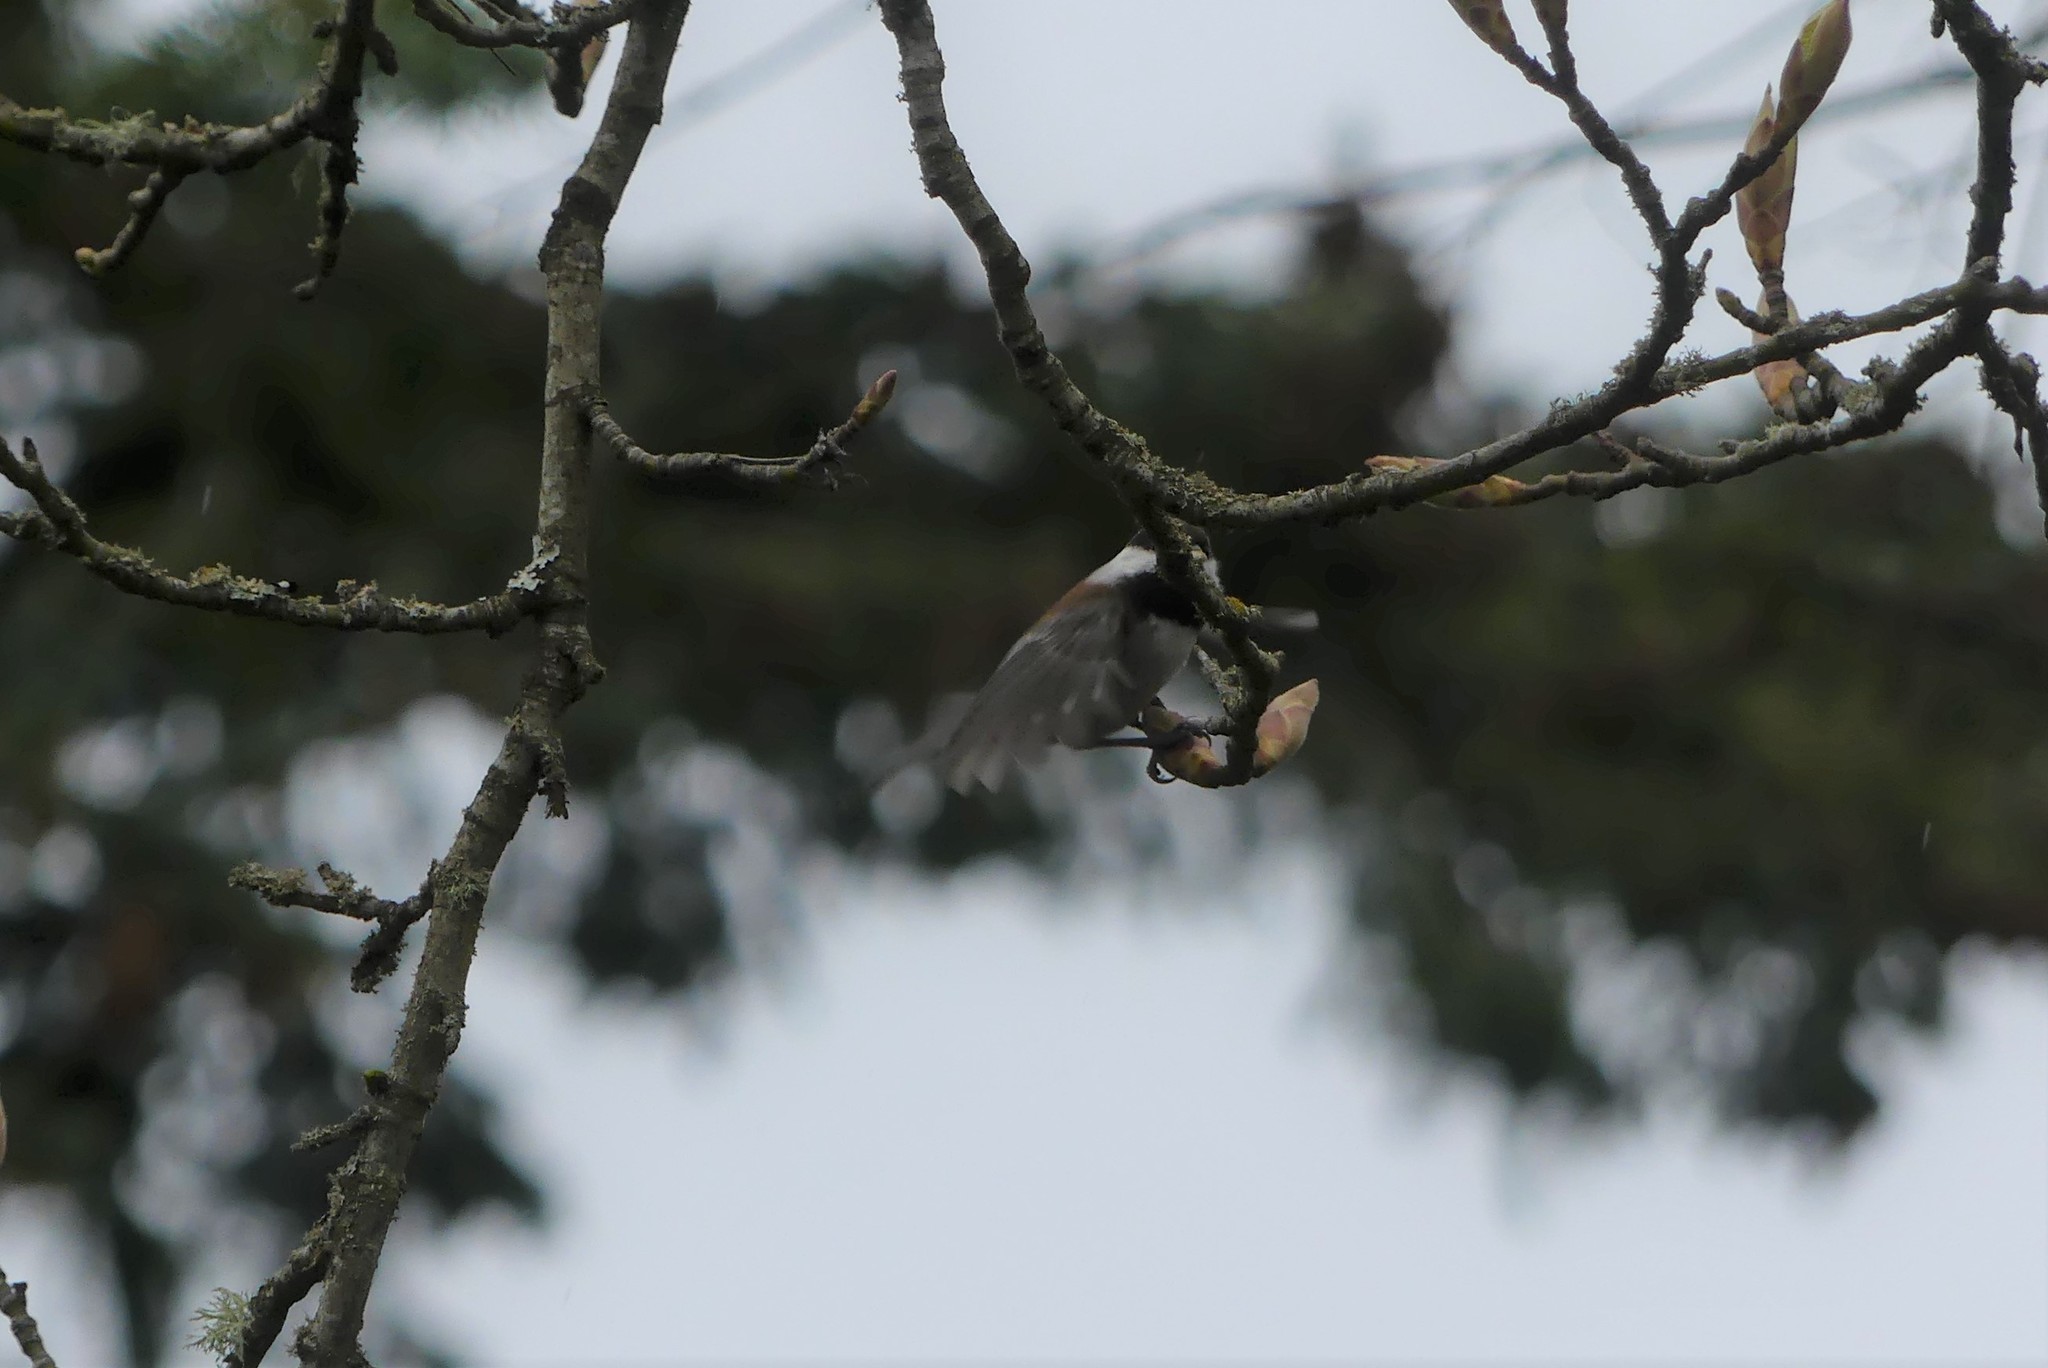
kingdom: Animalia
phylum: Chordata
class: Aves
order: Passeriformes
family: Paridae
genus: Poecile
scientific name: Poecile rufescens
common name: Chestnut-backed chickadee
